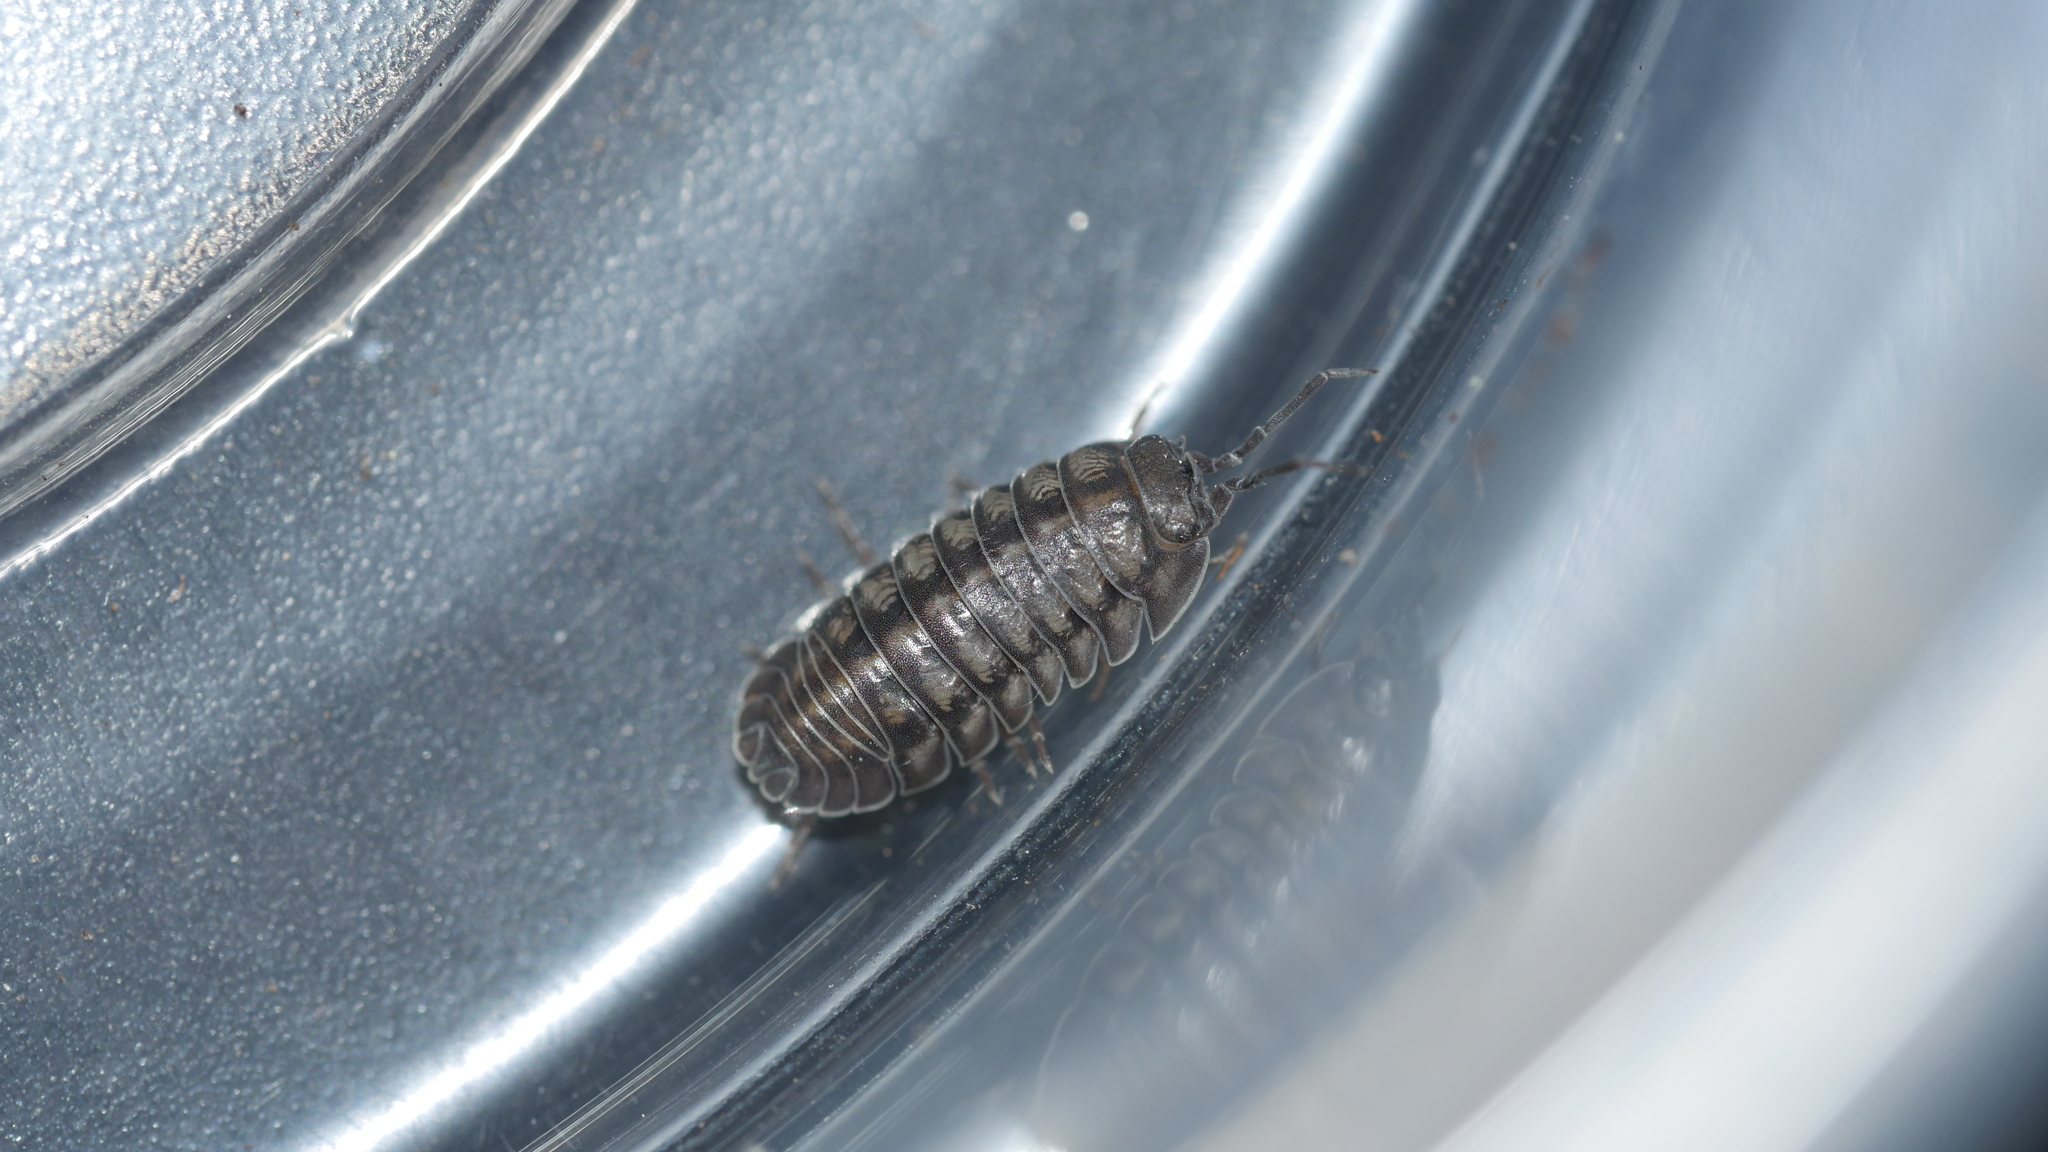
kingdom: Animalia
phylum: Arthropoda
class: Malacostraca
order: Isopoda
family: Armadillidiidae
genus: Armadillidium
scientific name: Armadillidium nasatum
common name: Isopod
